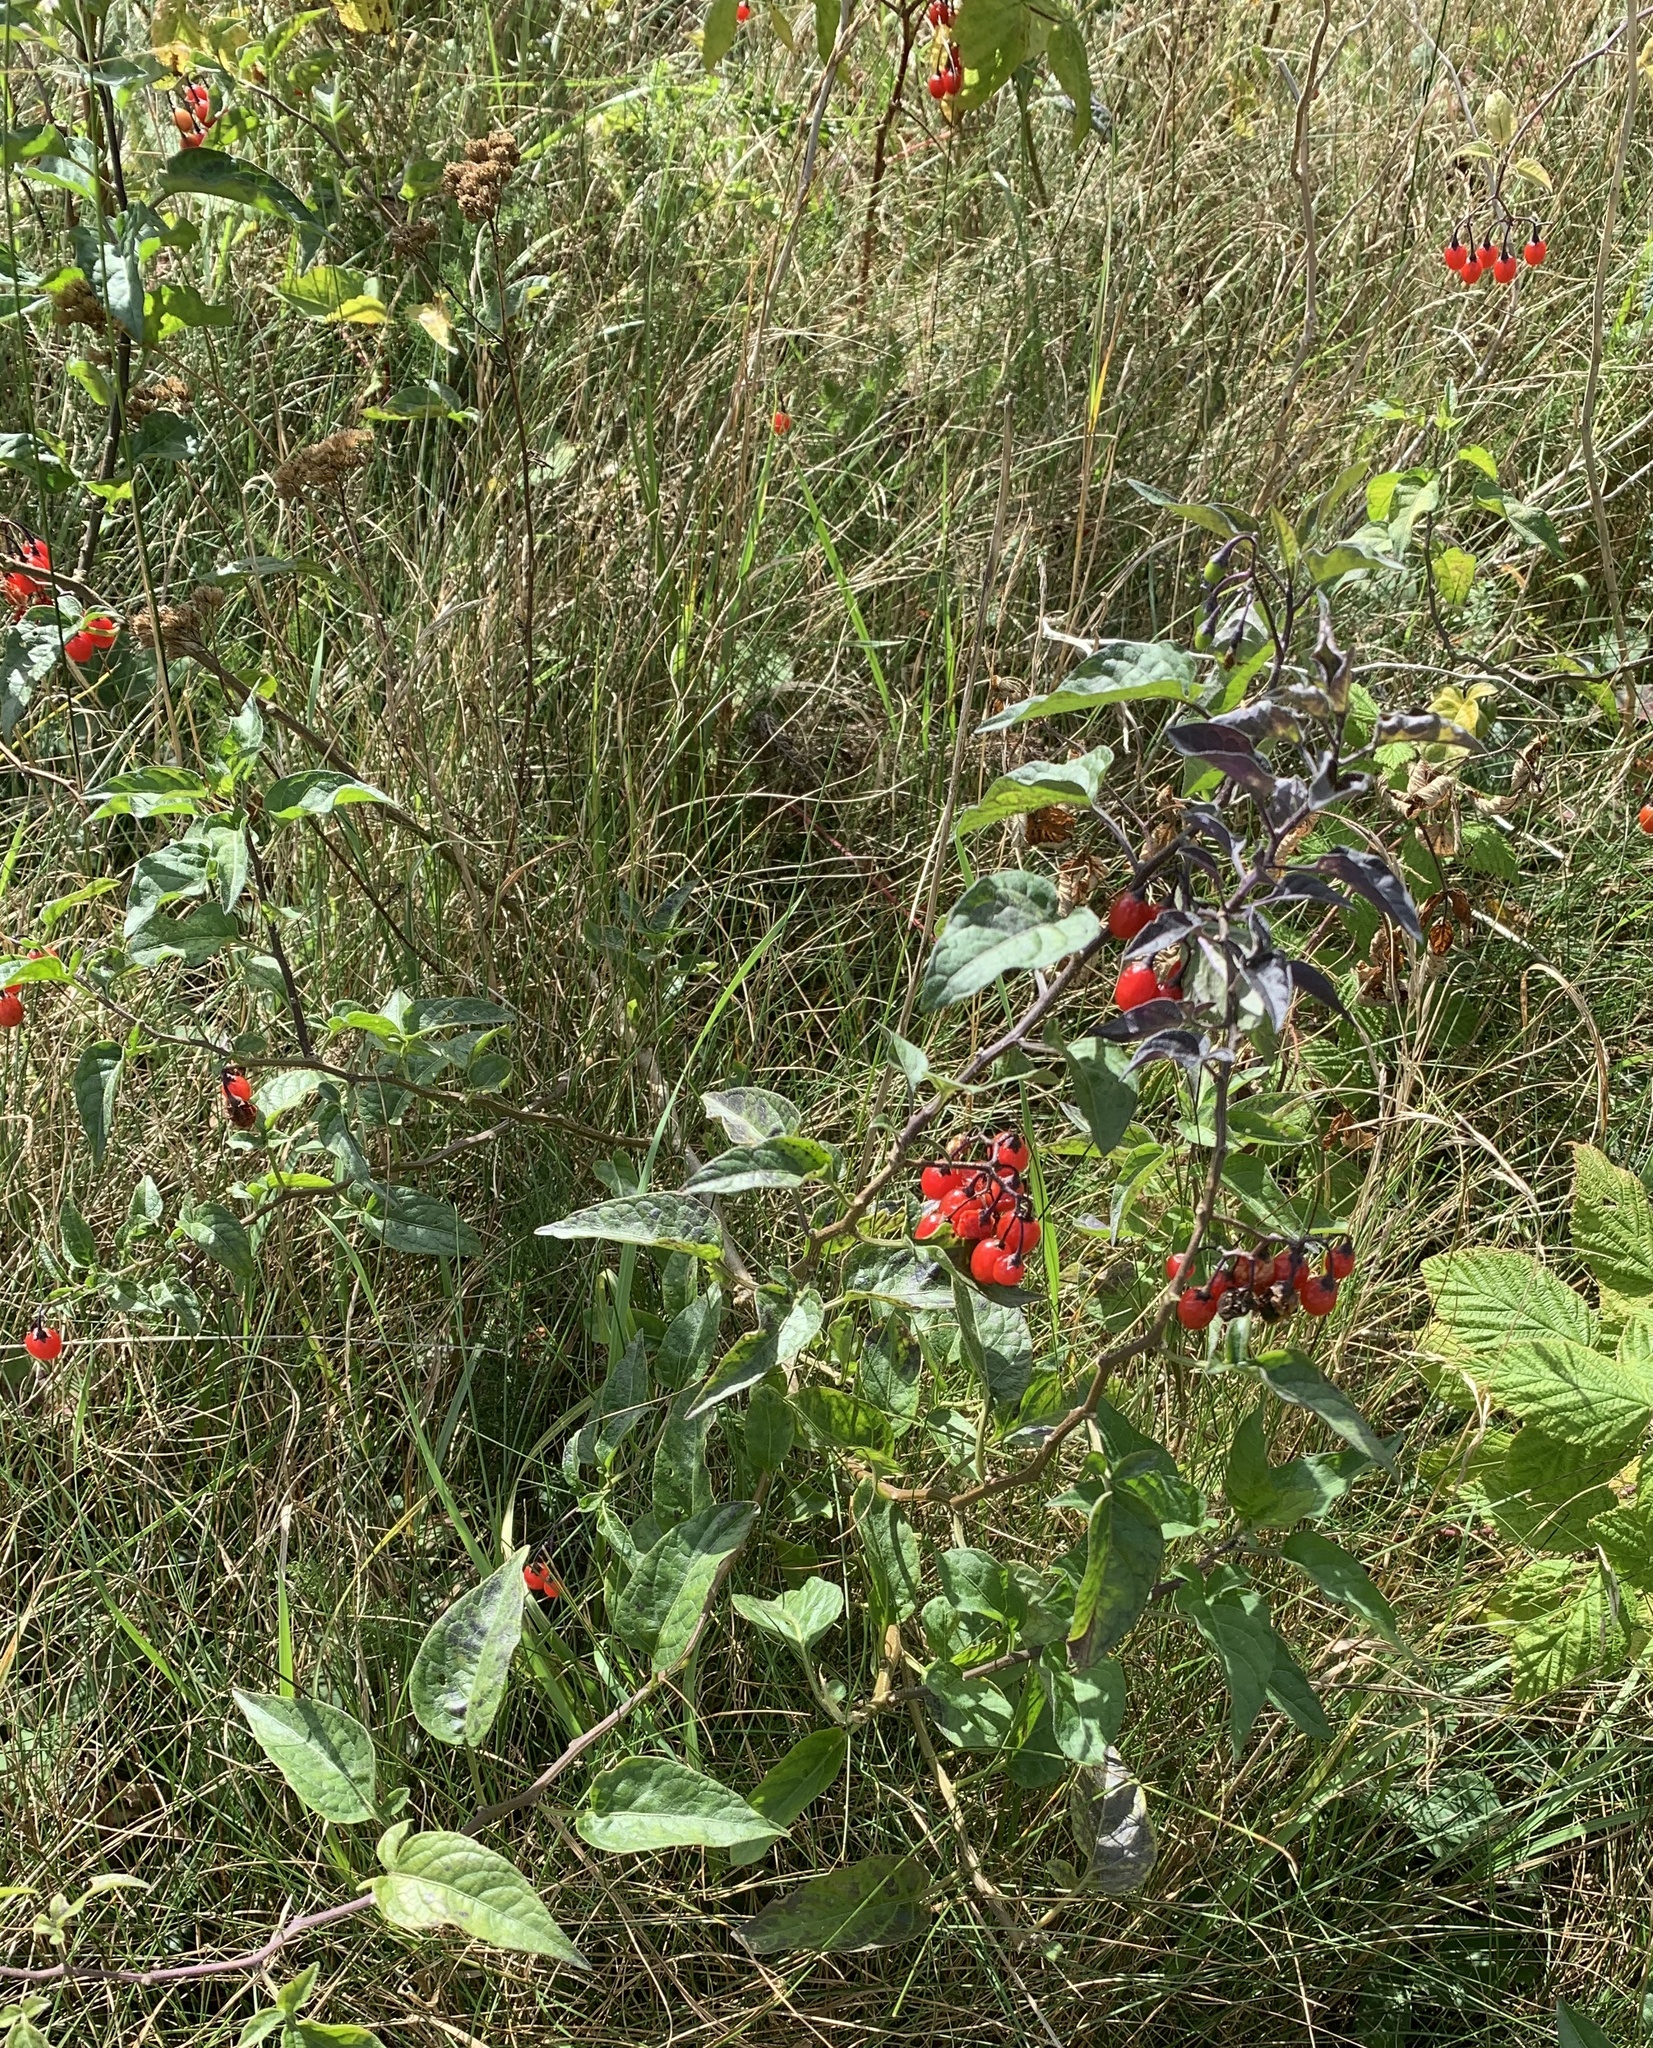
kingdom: Plantae
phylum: Tracheophyta
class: Magnoliopsida
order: Solanales
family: Solanaceae
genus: Solanum
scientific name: Solanum dulcamara
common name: Climbing nightshade
